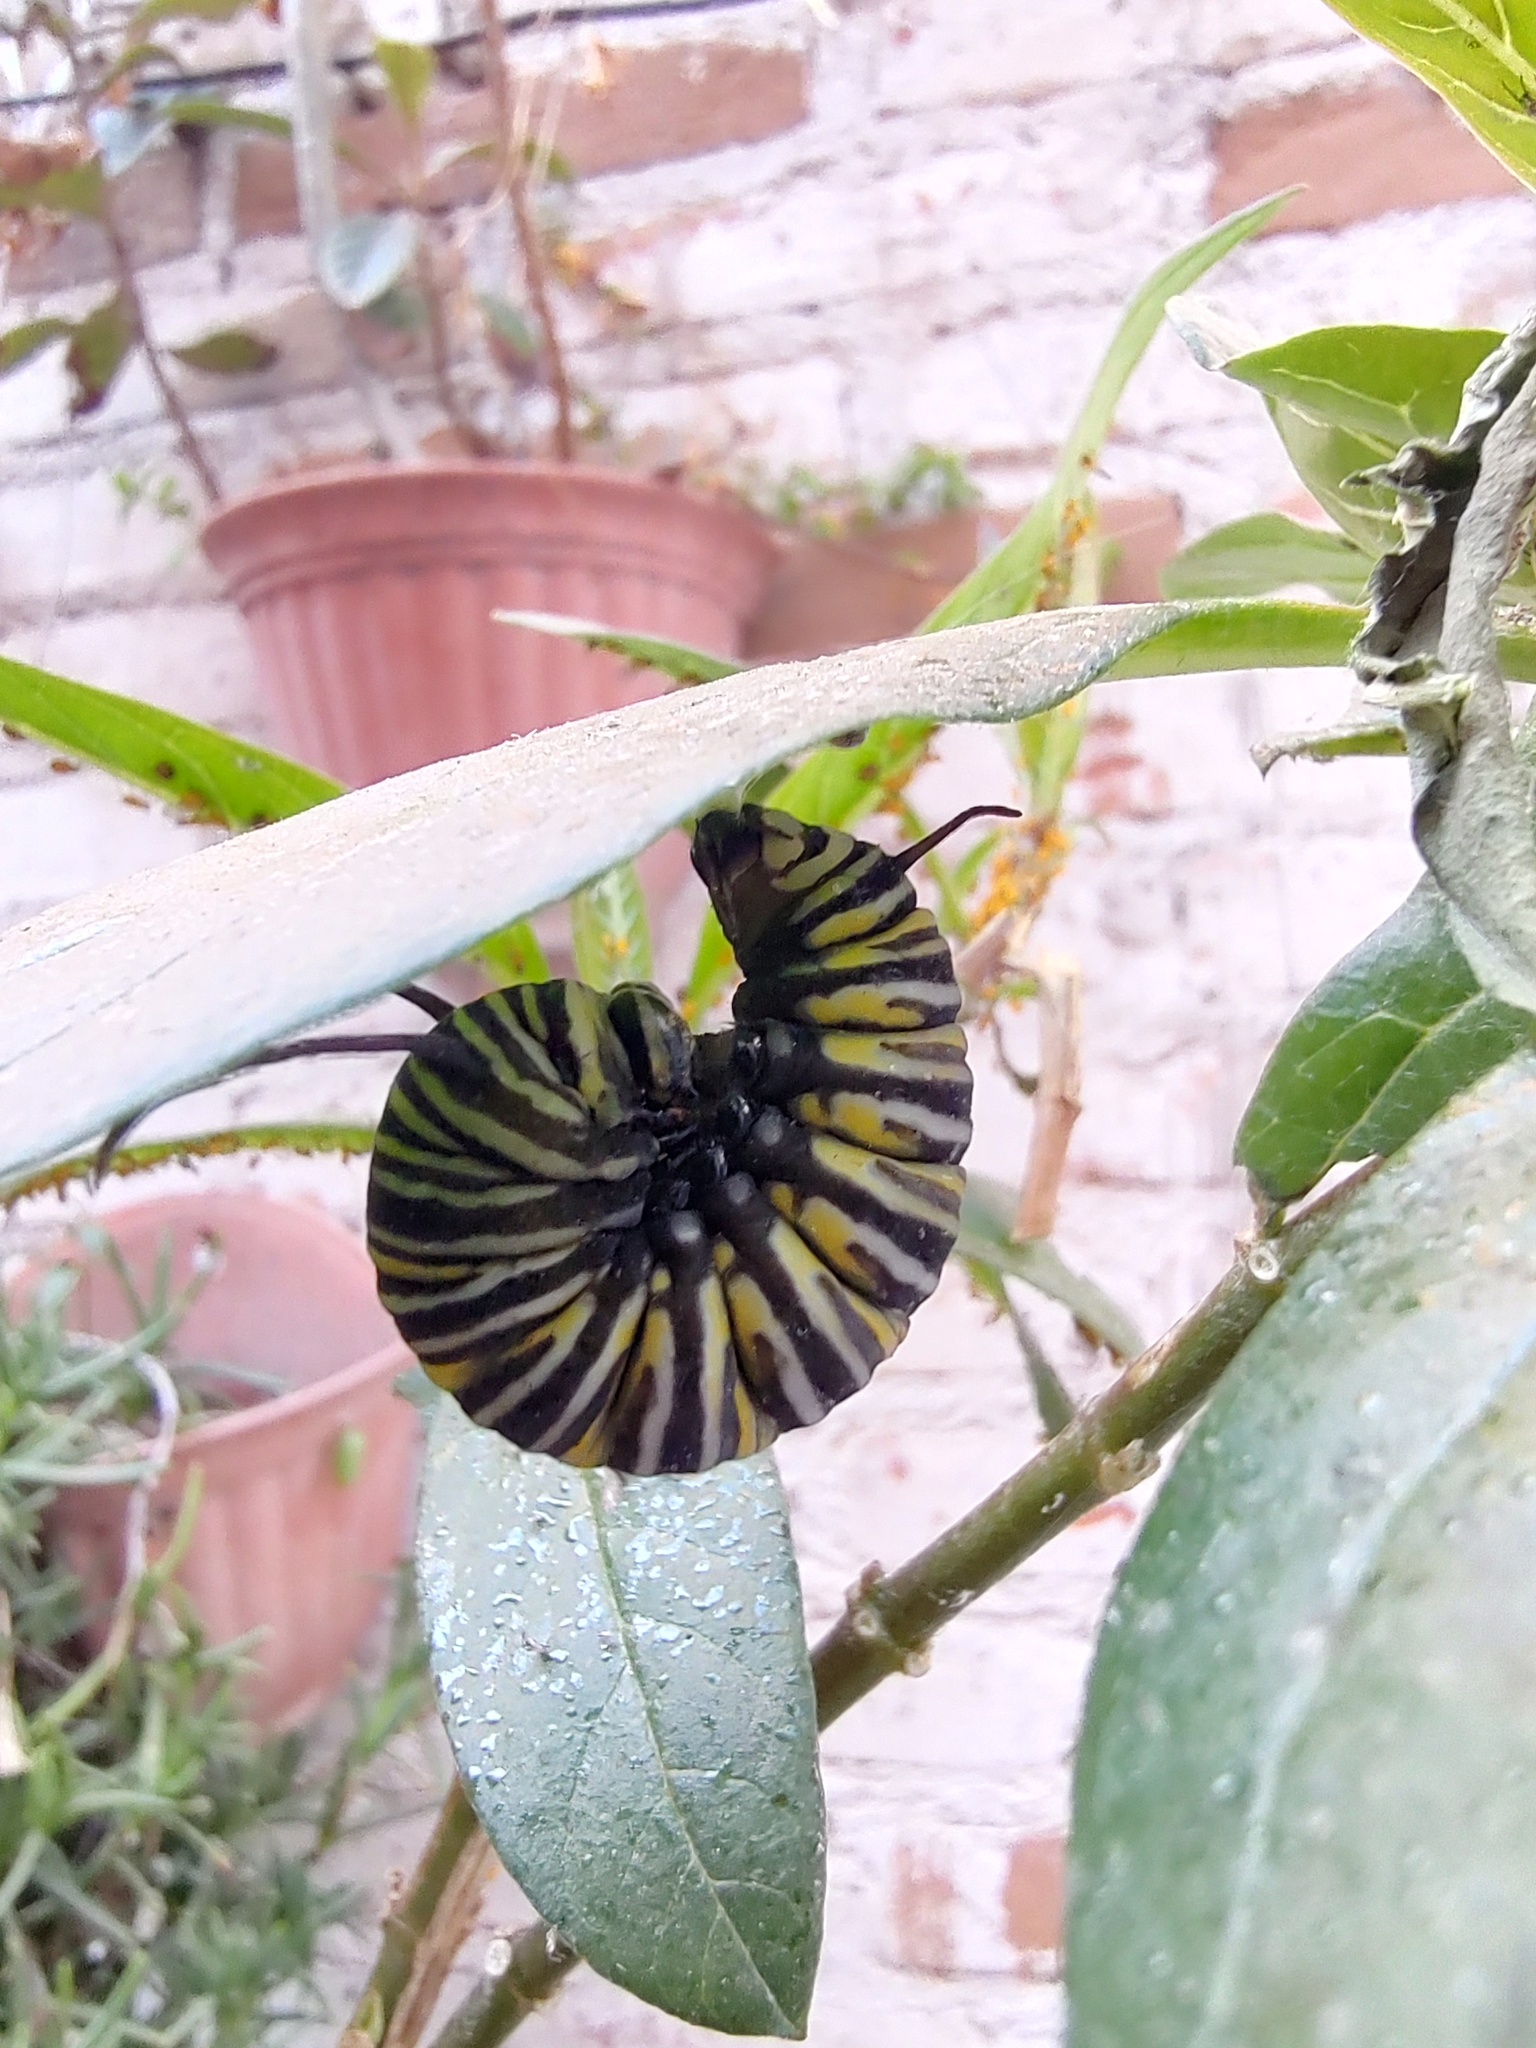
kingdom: Animalia
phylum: Arthropoda
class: Insecta
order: Lepidoptera
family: Nymphalidae
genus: Danaus
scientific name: Danaus plexippus
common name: Monarch
